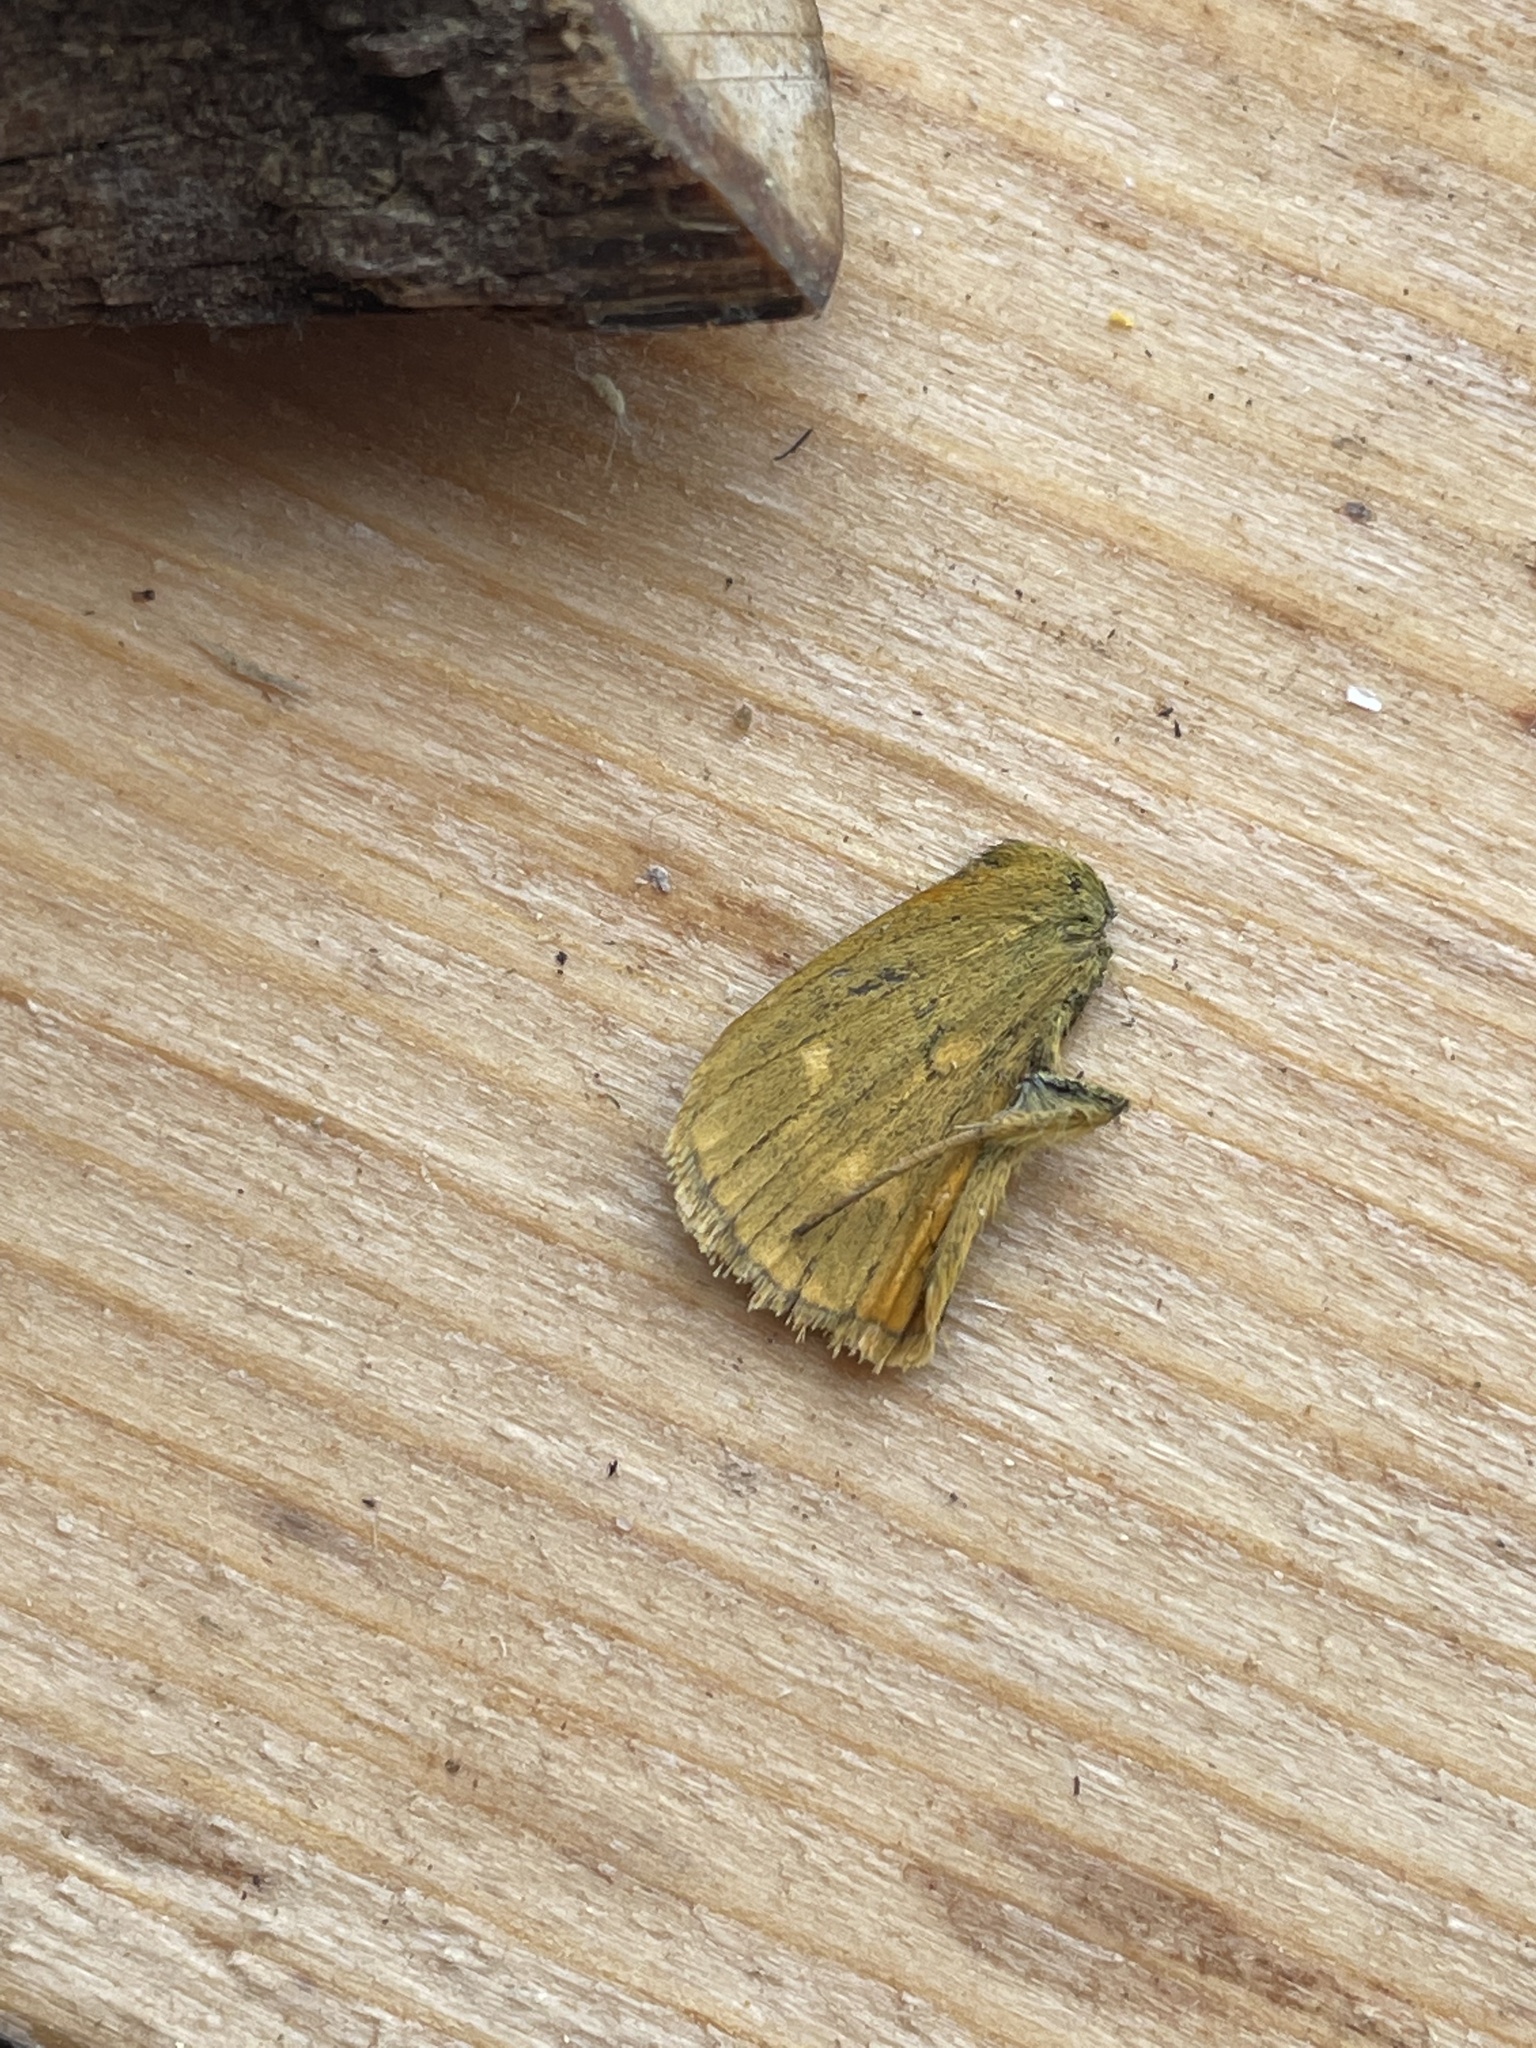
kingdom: Animalia
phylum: Arthropoda
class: Insecta
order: Lepidoptera
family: Hesperiidae
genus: Ochlodes
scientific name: Ochlodes venata
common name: Large skipper
